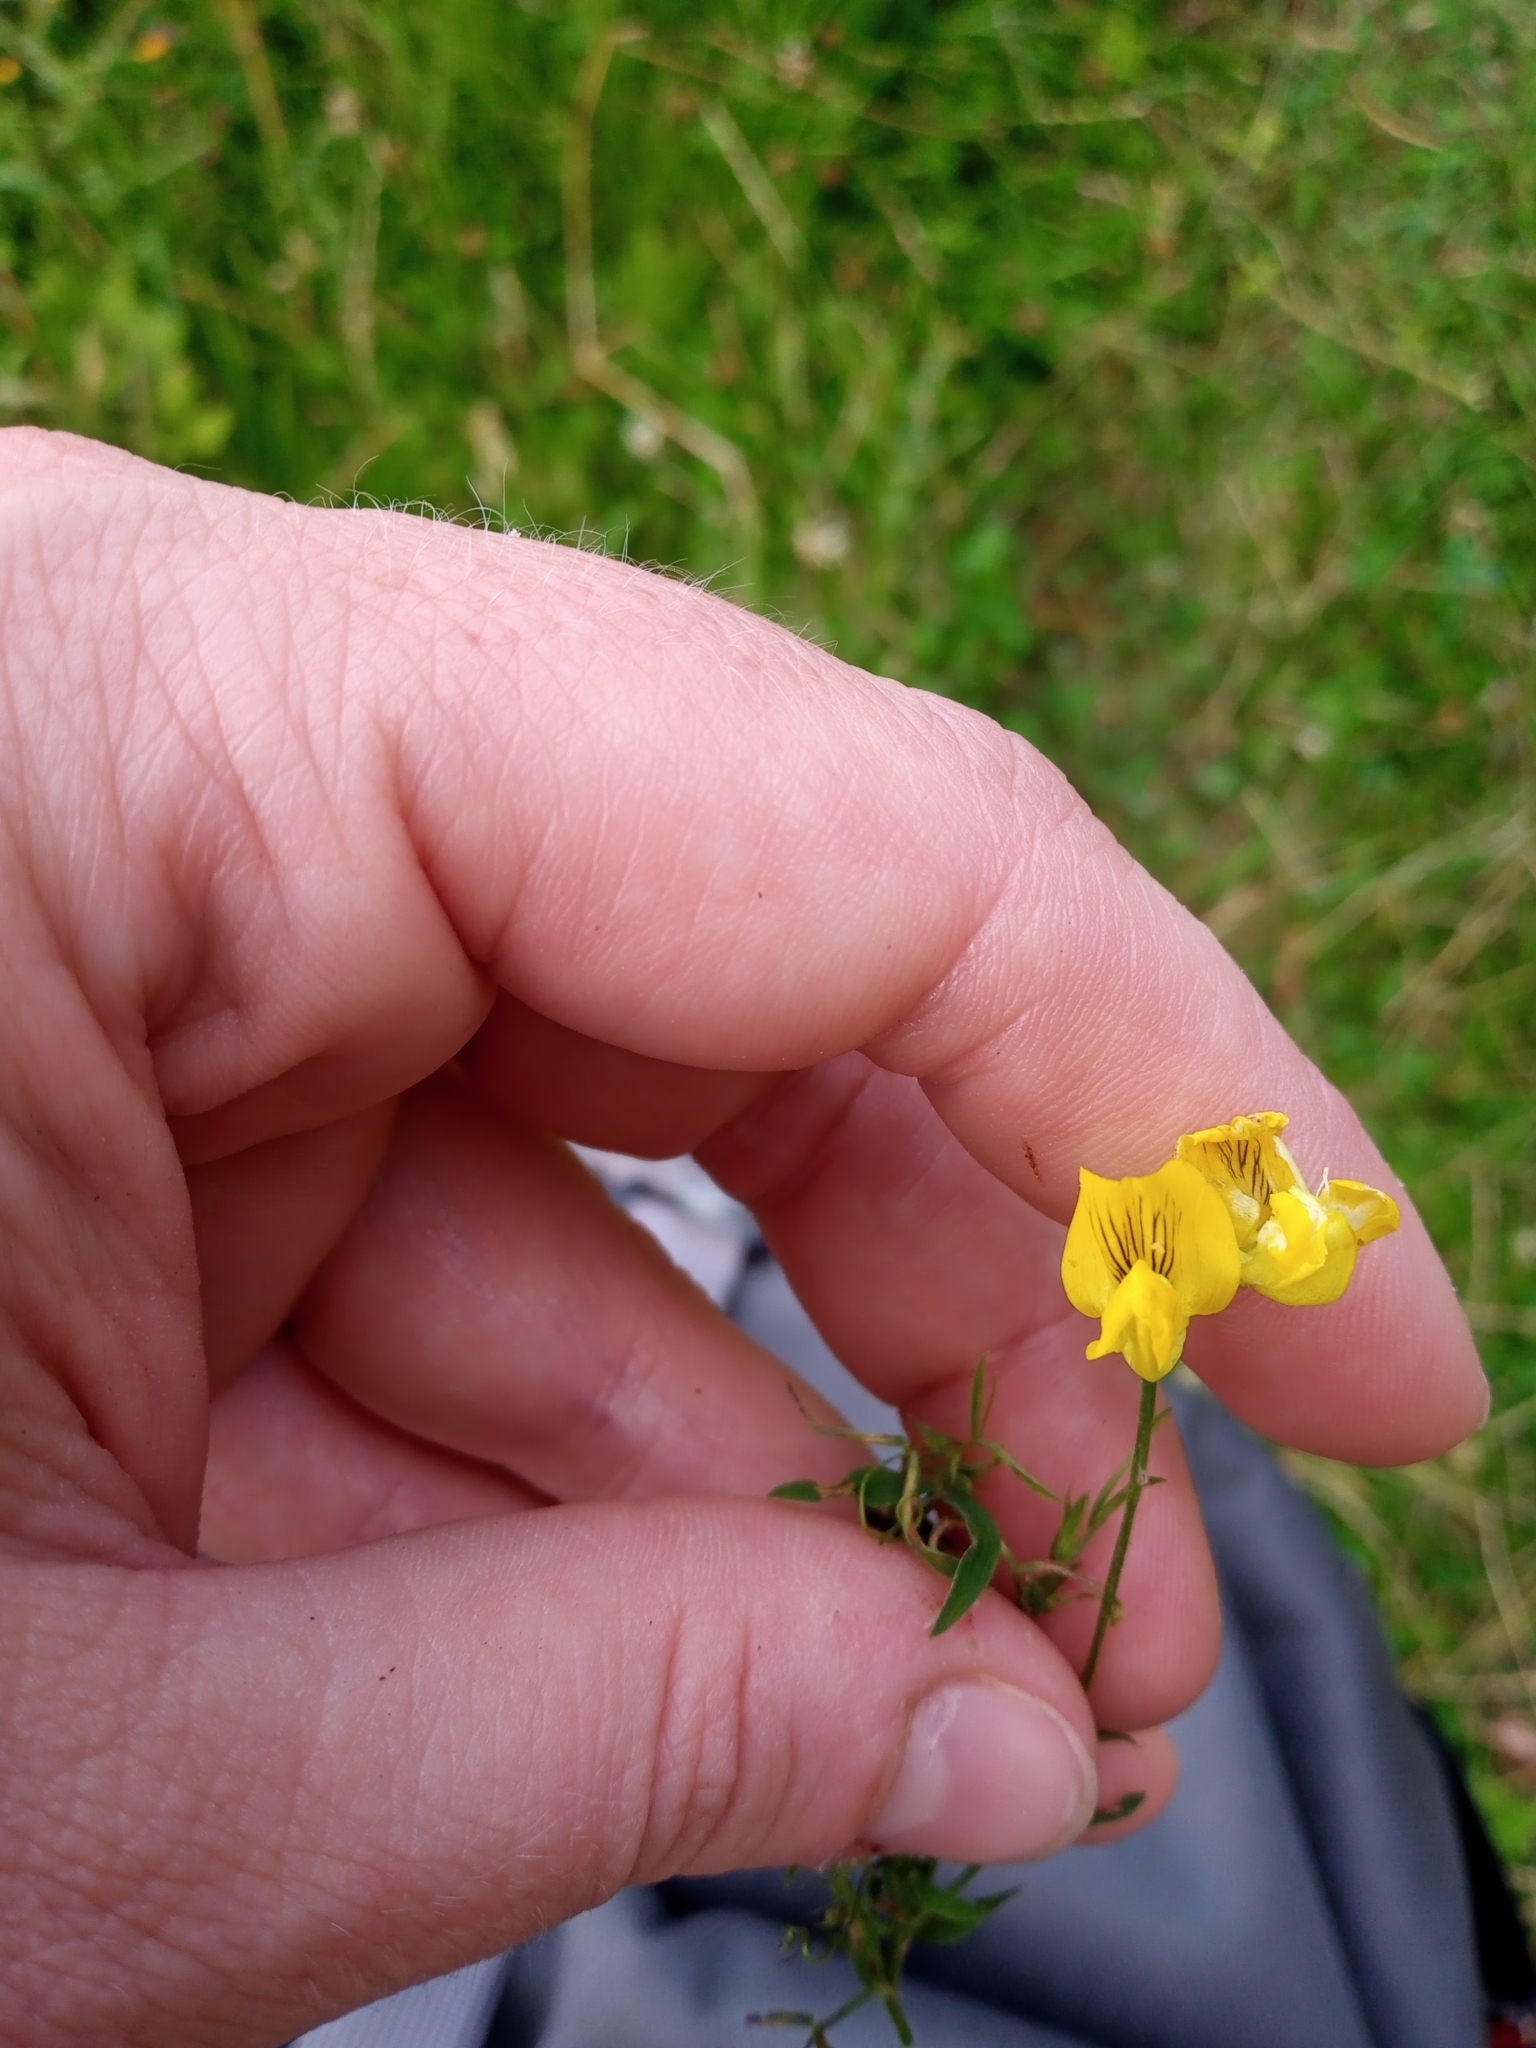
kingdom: Plantae
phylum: Tracheophyta
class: Magnoliopsida
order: Fabales
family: Fabaceae
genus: Lathyrus
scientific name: Lathyrus pratensis
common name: Meadow vetchling
